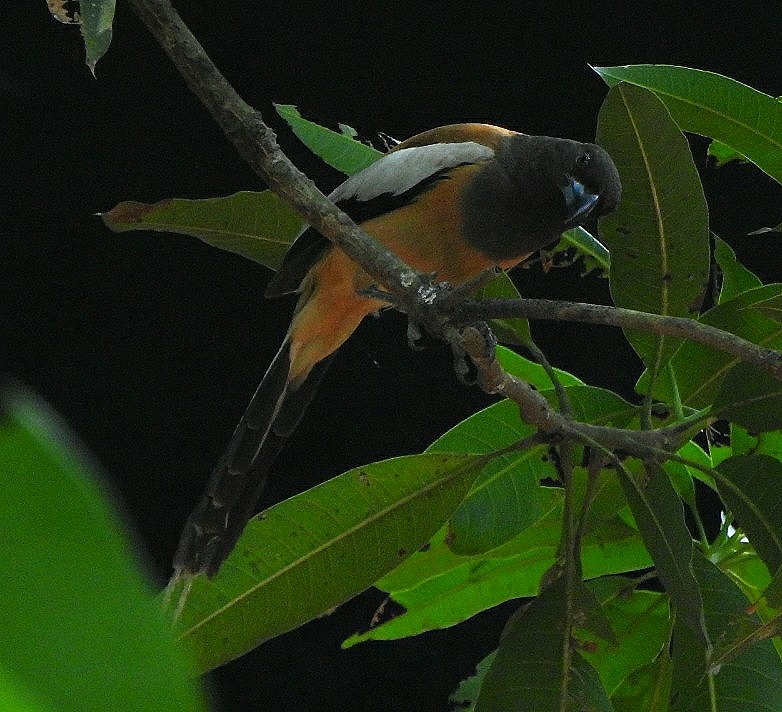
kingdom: Animalia
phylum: Chordata
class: Aves
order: Passeriformes
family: Corvidae
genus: Dendrocitta
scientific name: Dendrocitta vagabunda
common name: Rufous treepie
